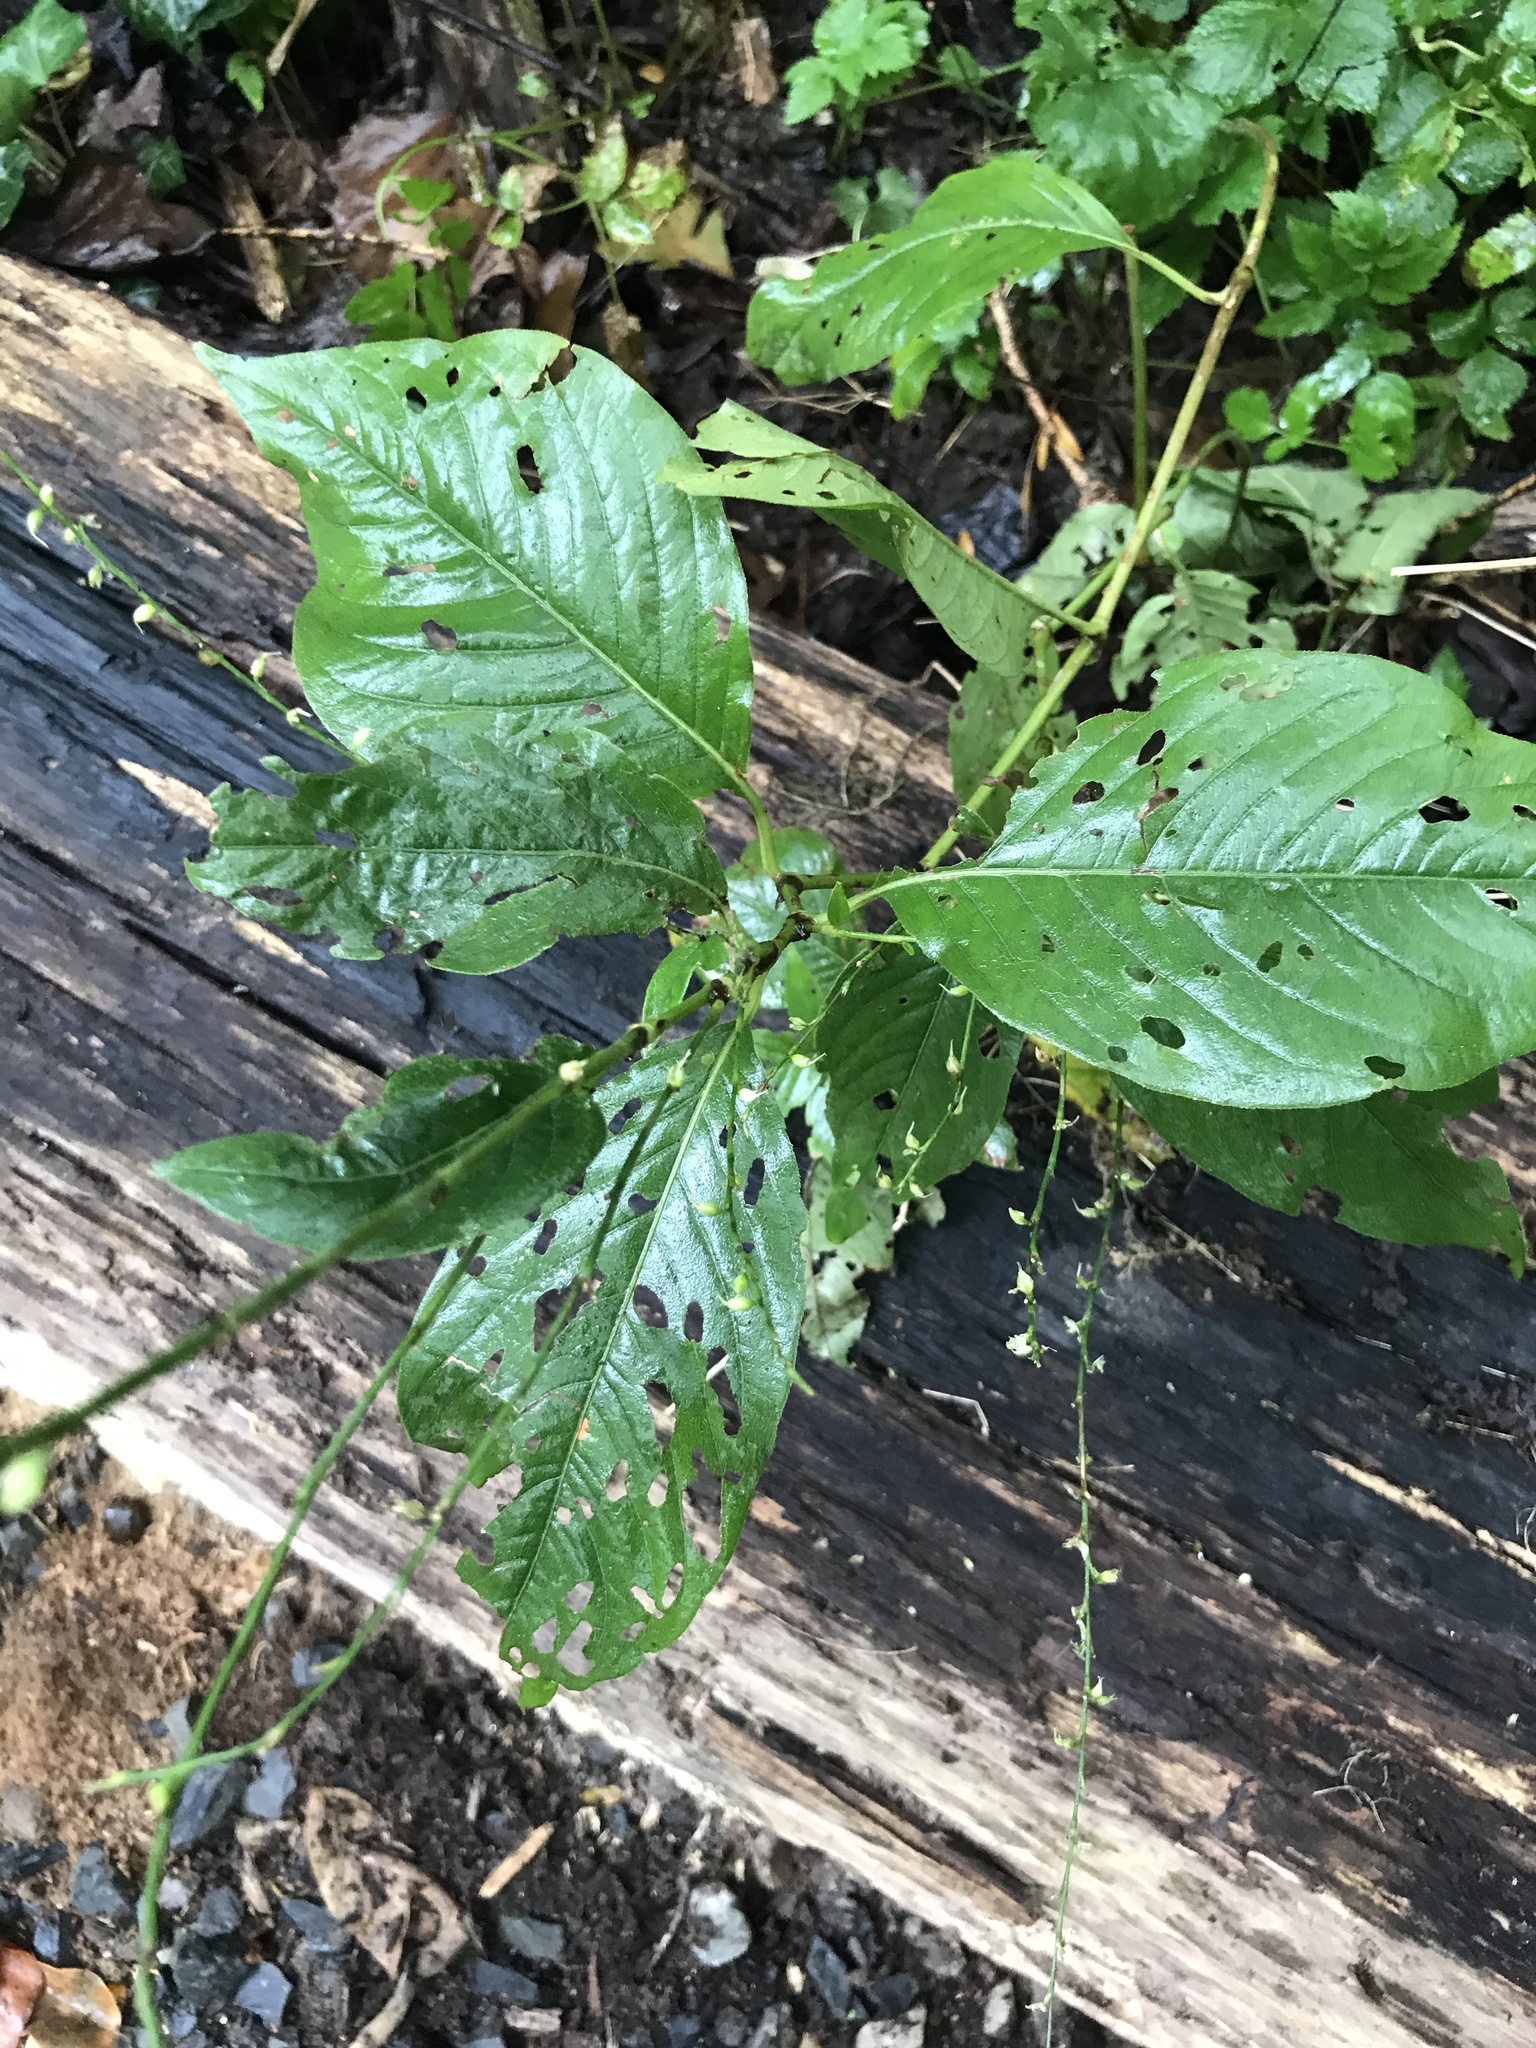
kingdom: Plantae
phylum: Tracheophyta
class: Magnoliopsida
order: Caryophyllales
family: Polygonaceae
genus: Persicaria
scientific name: Persicaria virginiana
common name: Jumpseed
